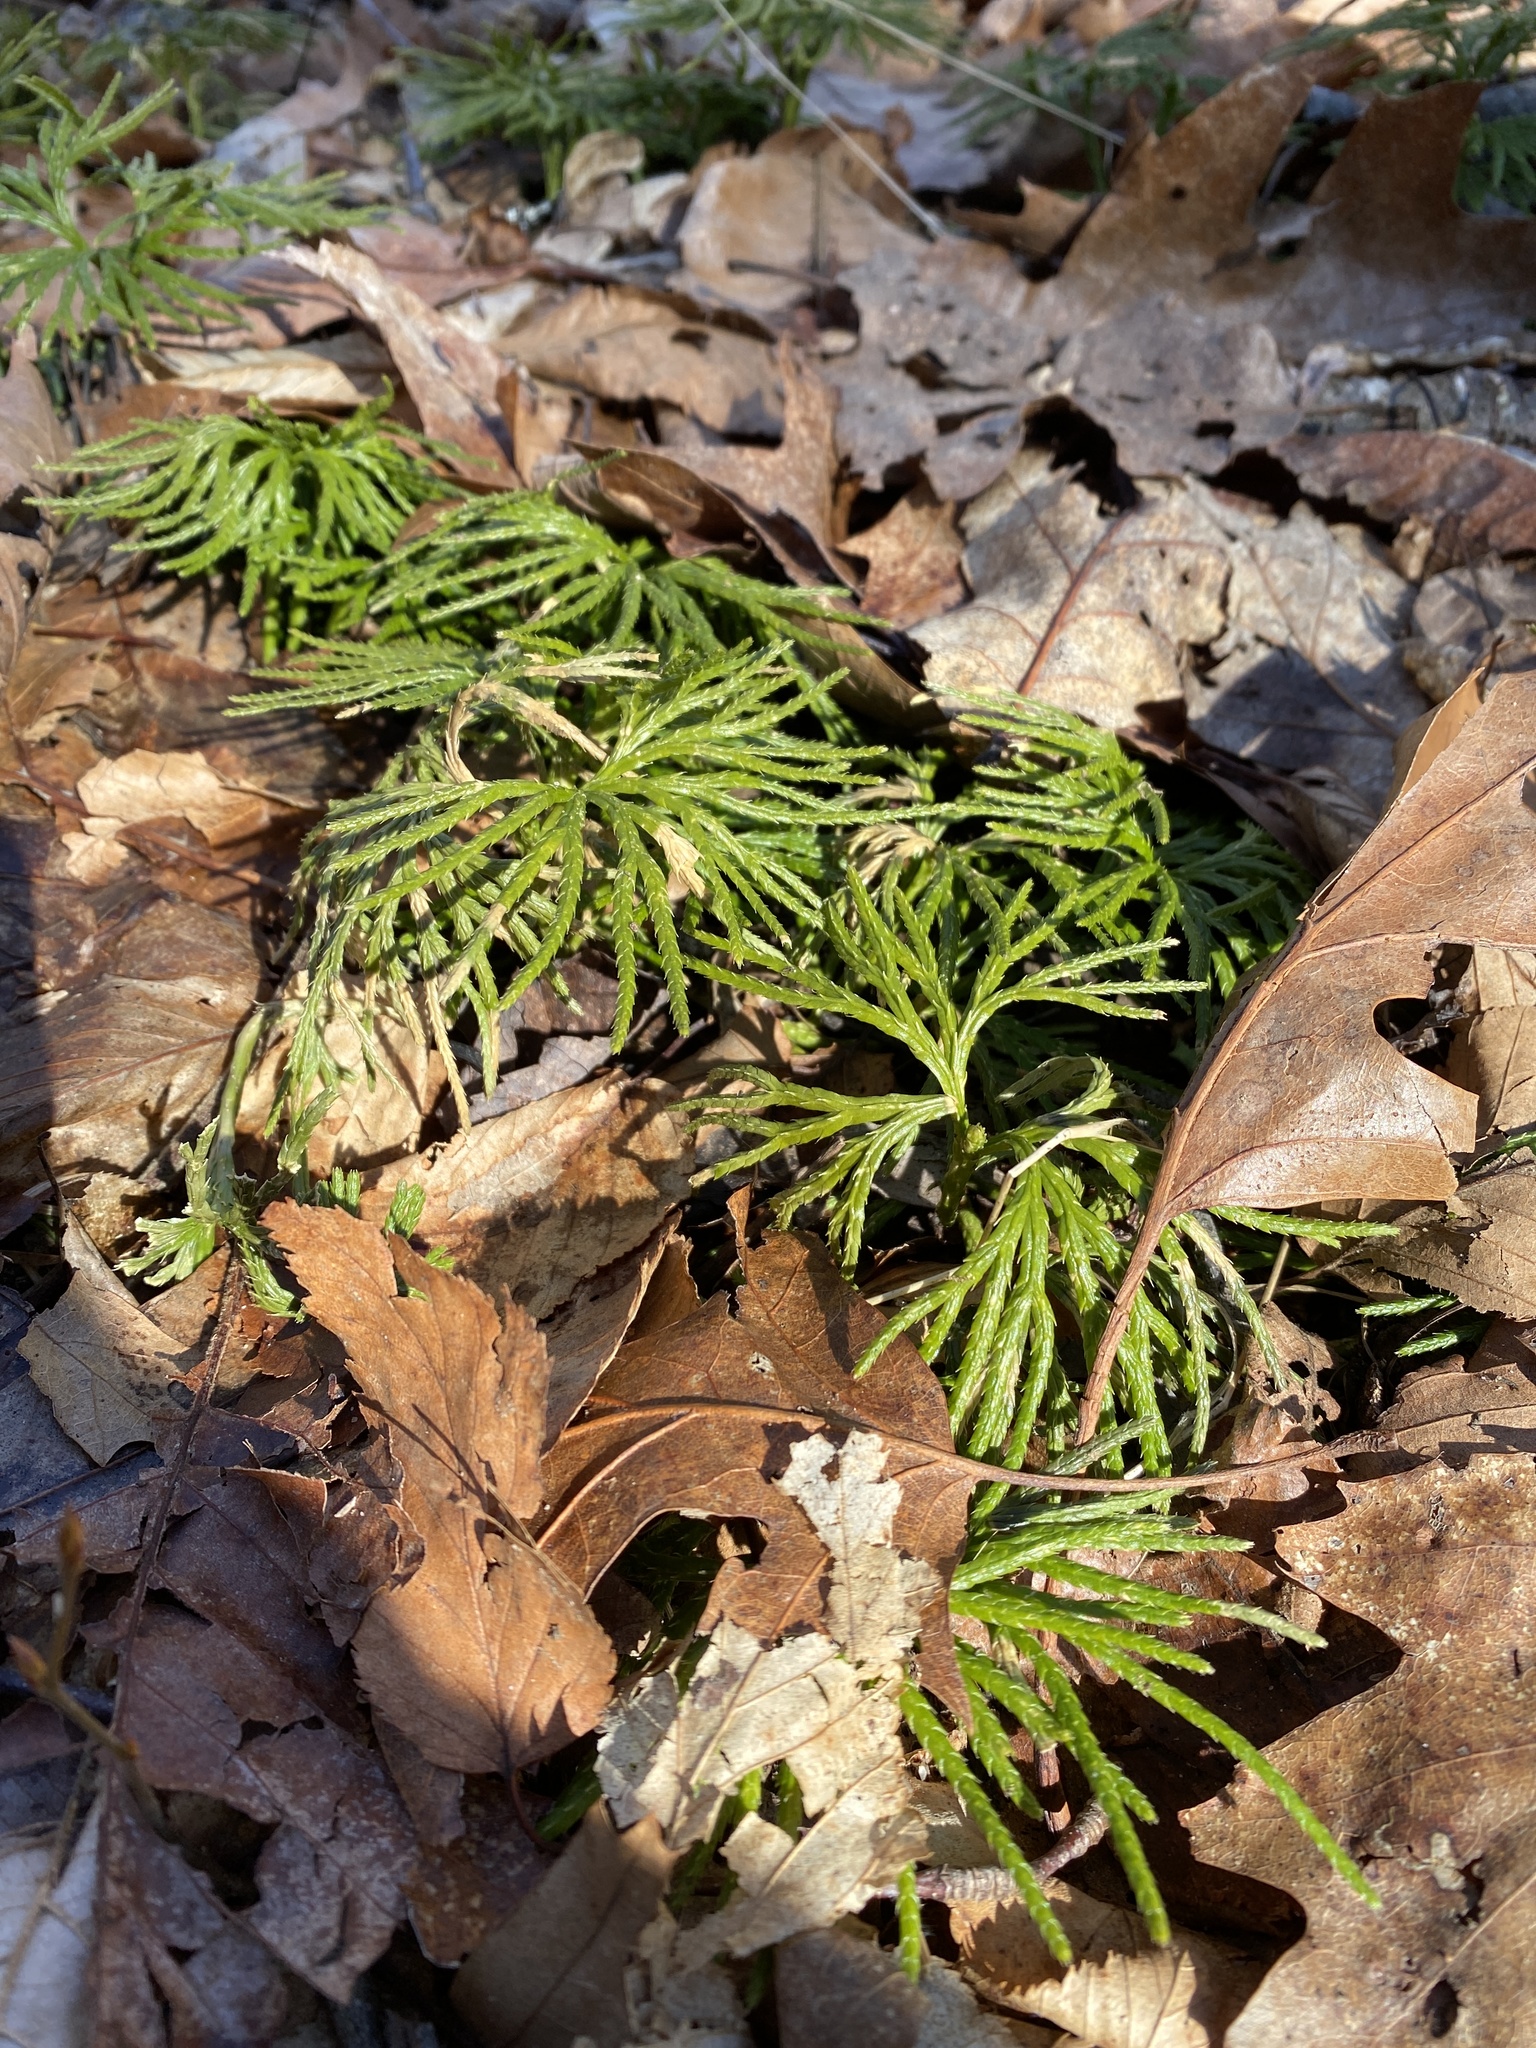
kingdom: Plantae
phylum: Tracheophyta
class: Lycopodiopsida
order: Lycopodiales
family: Lycopodiaceae
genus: Diphasiastrum
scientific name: Diphasiastrum digitatum
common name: Southern running-pine
